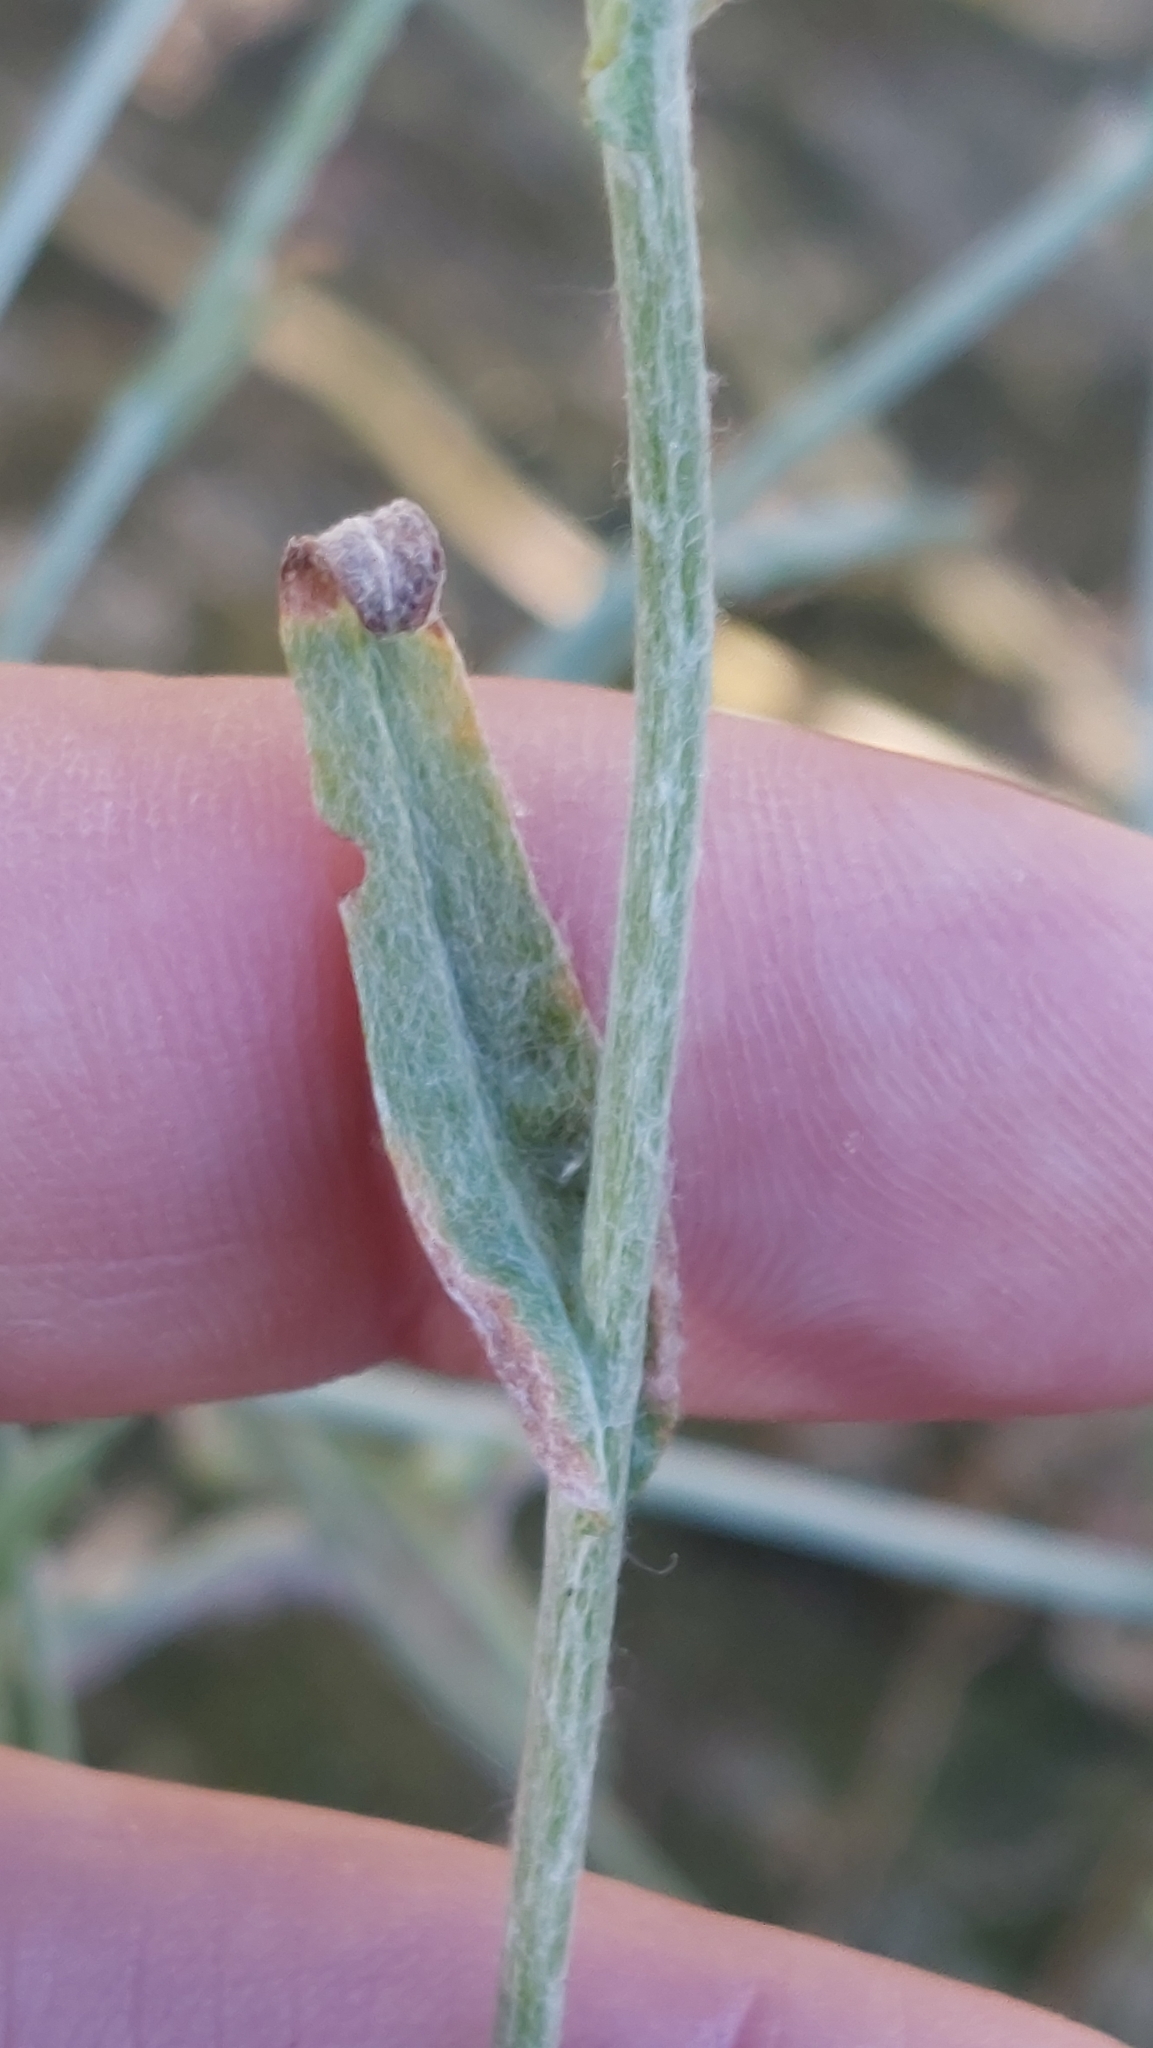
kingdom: Plantae
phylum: Tracheophyta
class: Magnoliopsida
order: Asterales
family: Asteraceae
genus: Helichrysum
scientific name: Helichrysum luteoalbum
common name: Daisy
